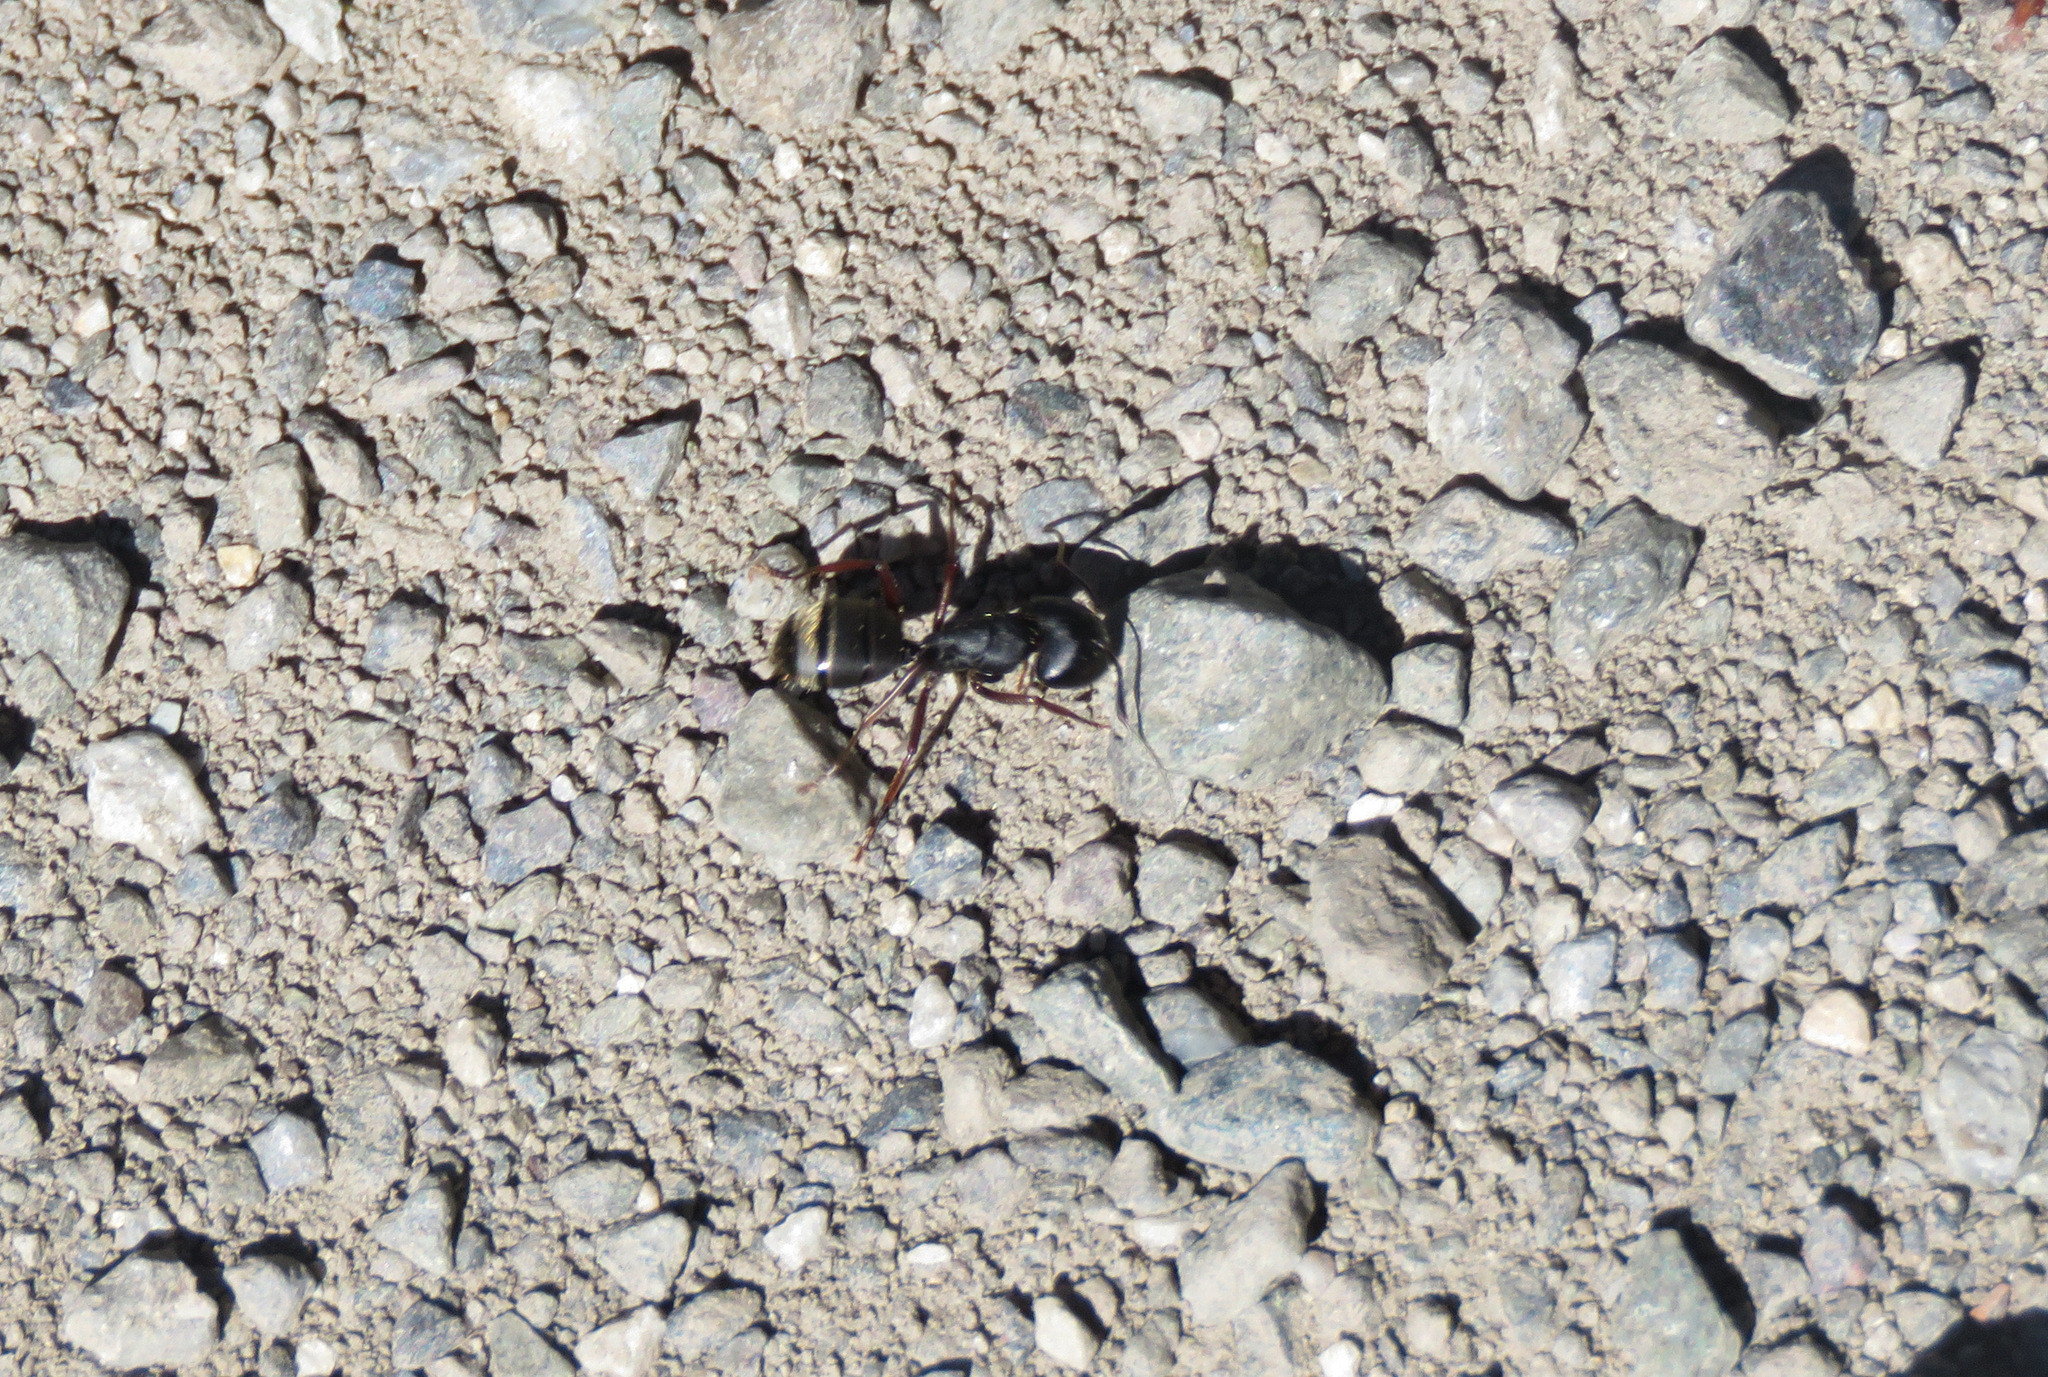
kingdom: Animalia
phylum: Arthropoda
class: Insecta
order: Hymenoptera
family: Formicidae
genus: Camponotus
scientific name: Camponotus modoc
